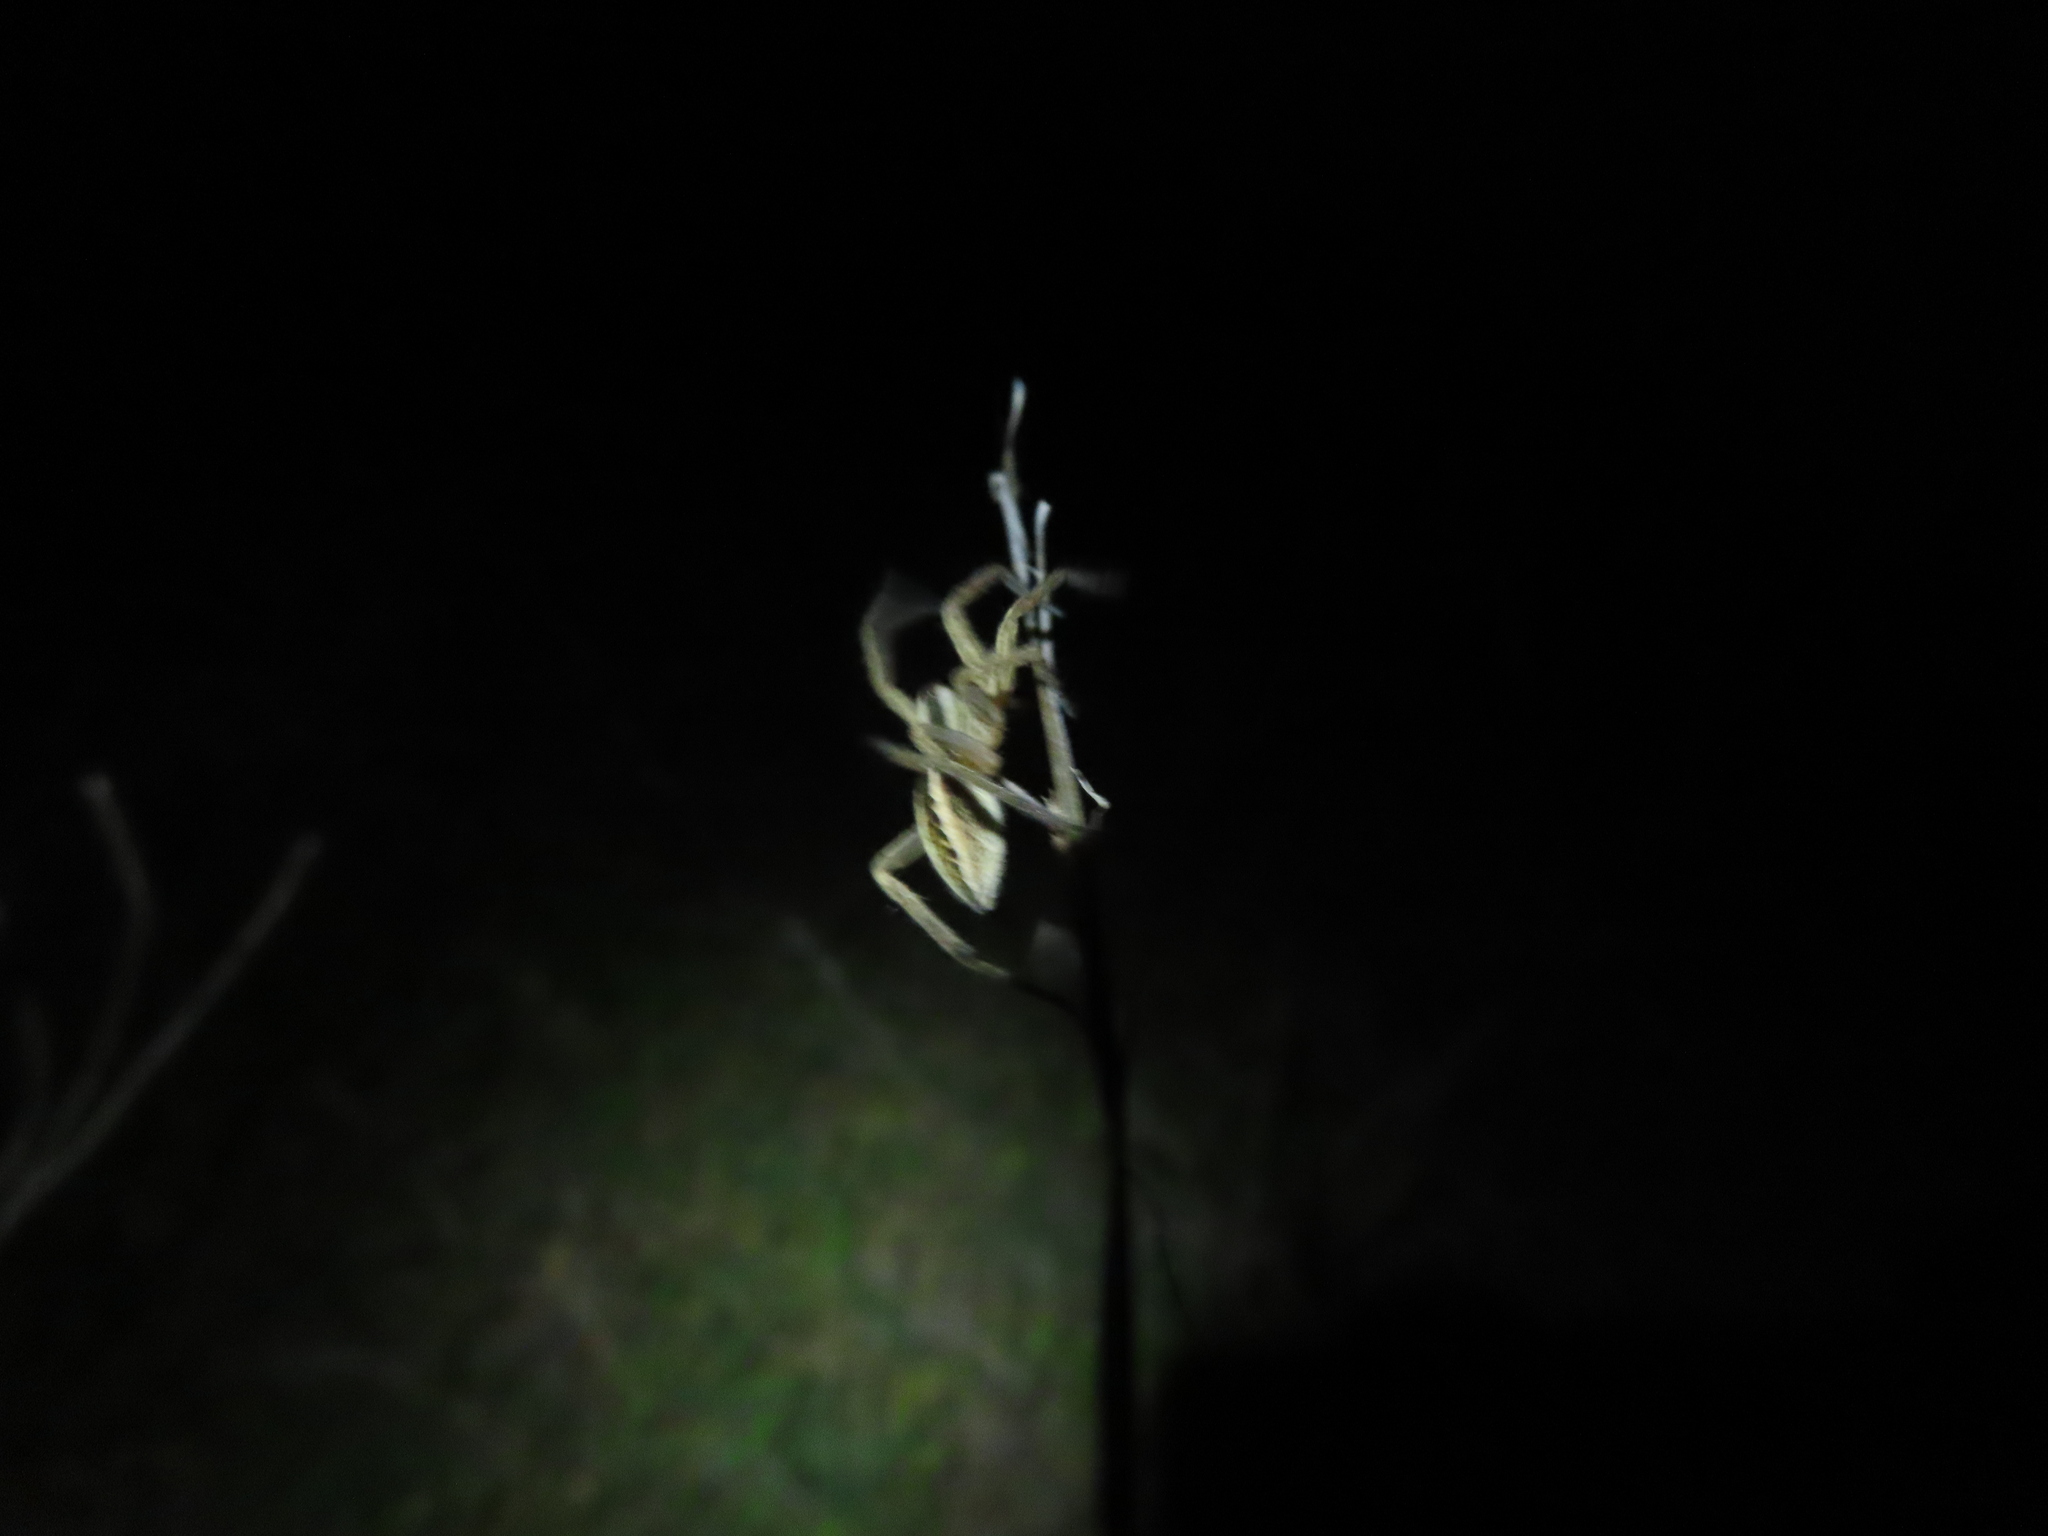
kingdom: Animalia
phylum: Arthropoda
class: Arachnida
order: Araneae
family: Lycosidae
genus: Rabidosa
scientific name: Rabidosa rabida
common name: Rabid wolf spider
